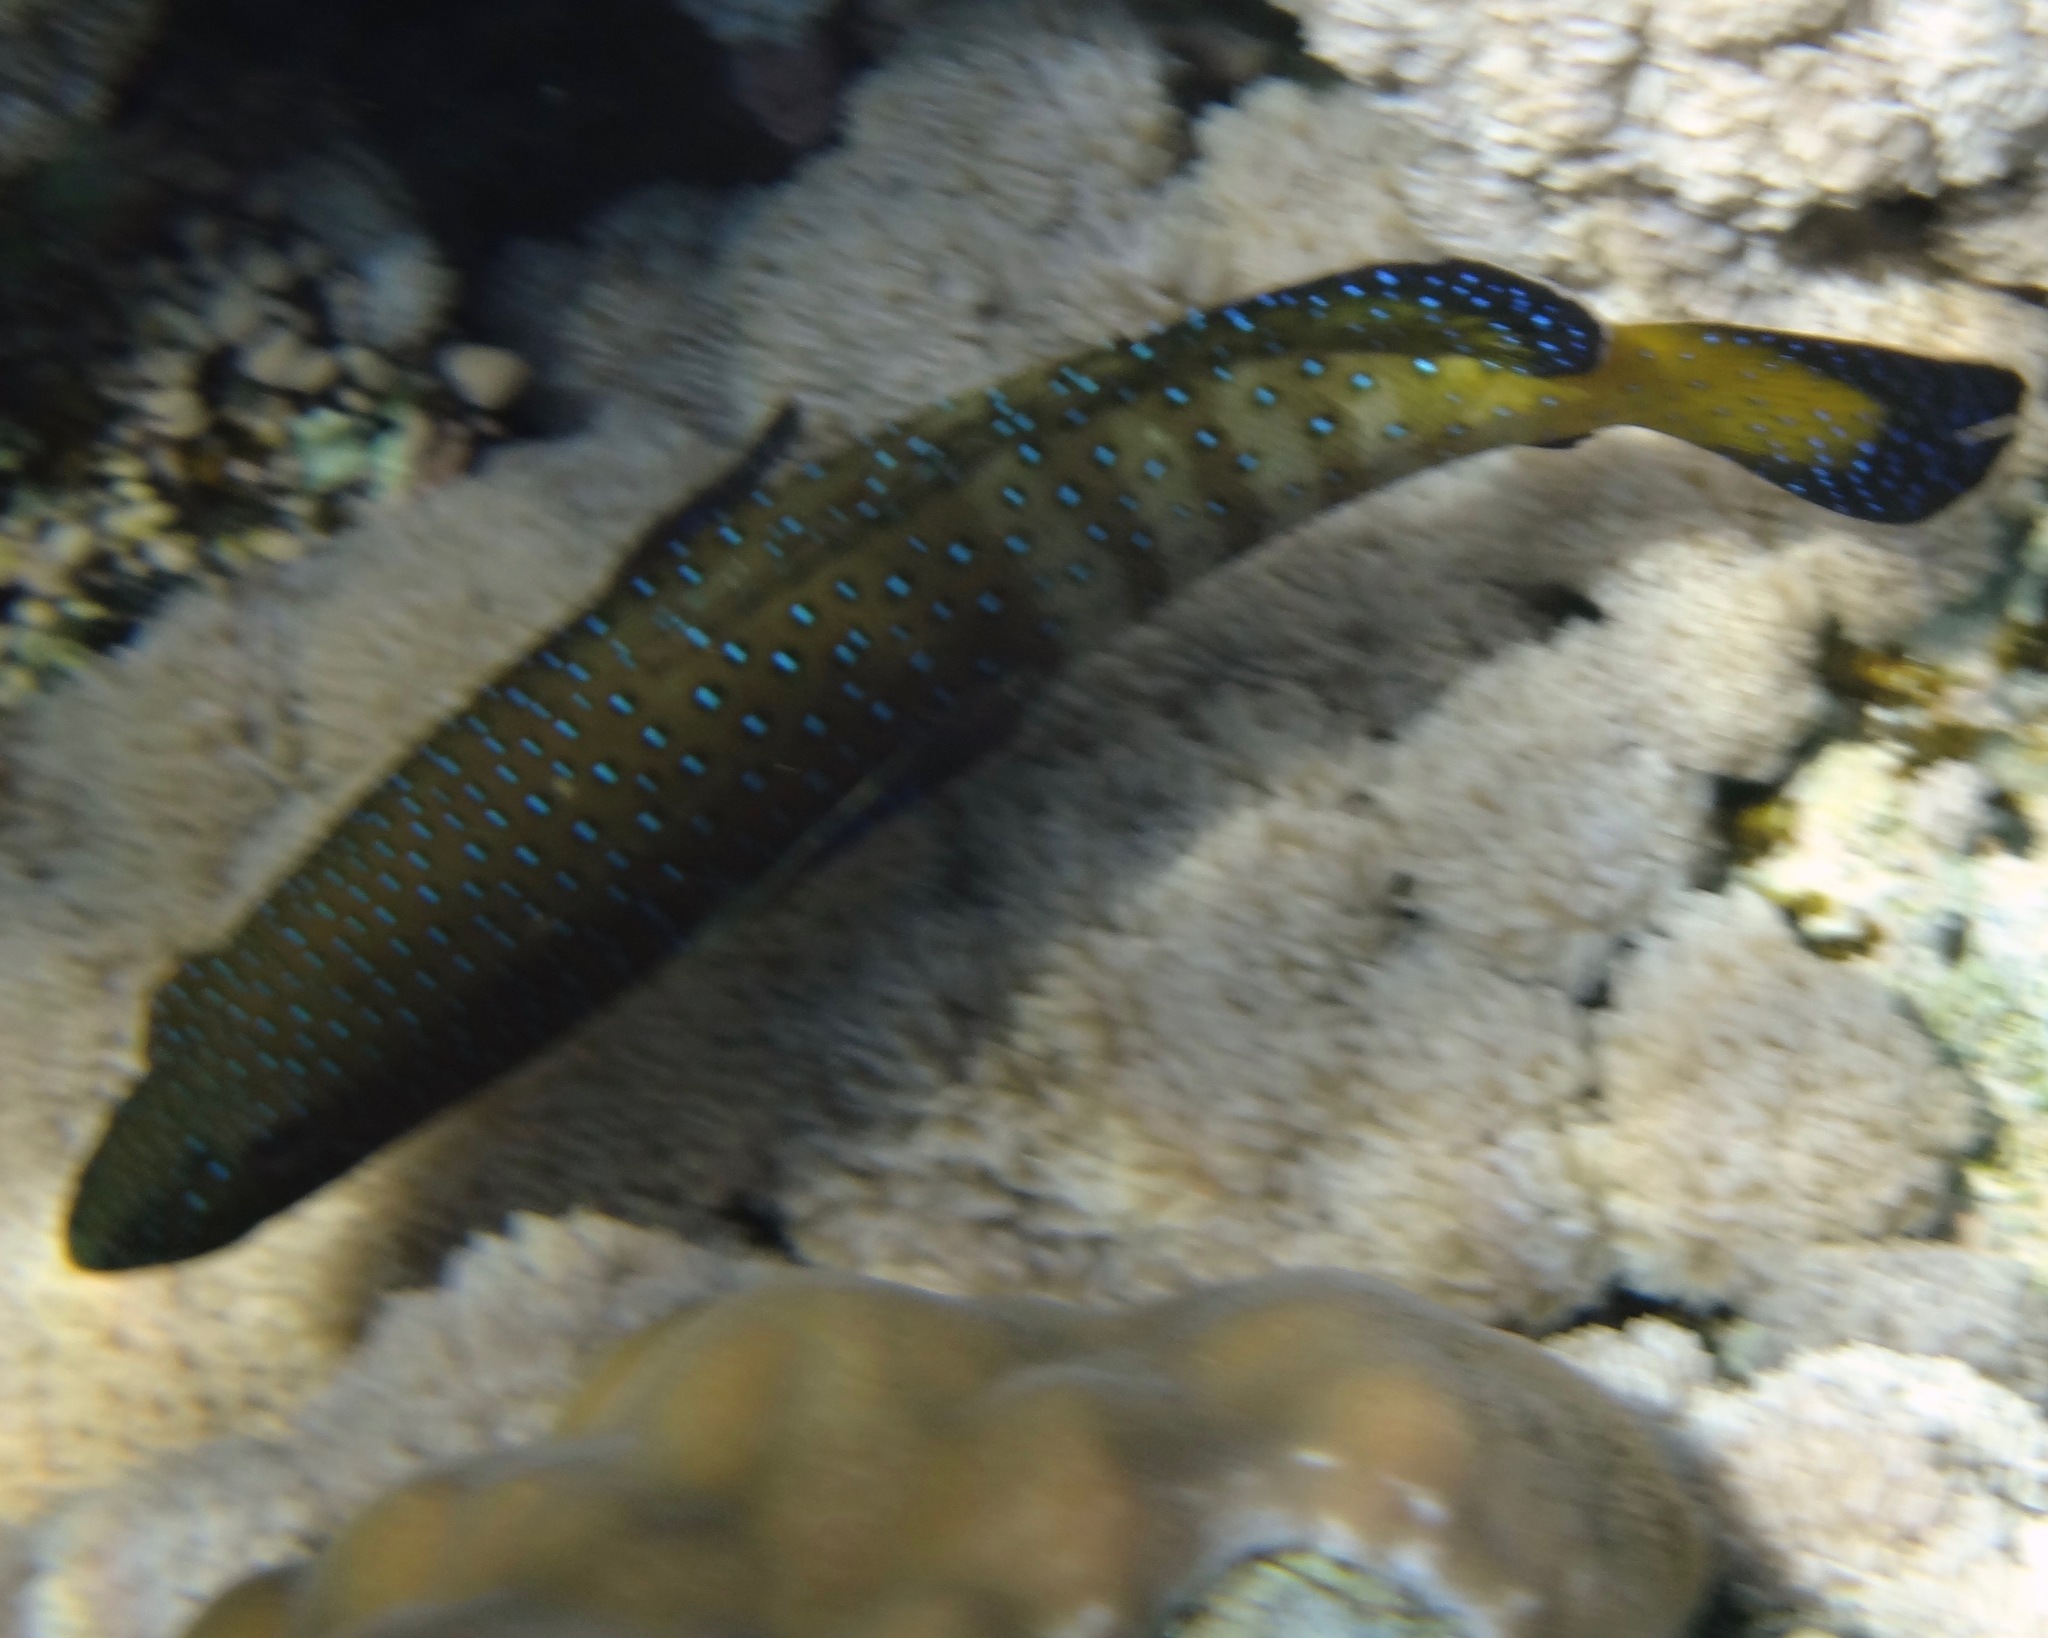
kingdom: Animalia
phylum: Chordata
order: Perciformes
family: Serranidae
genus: Cephalopholis
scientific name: Cephalopholis argus
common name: Peacock grouper
